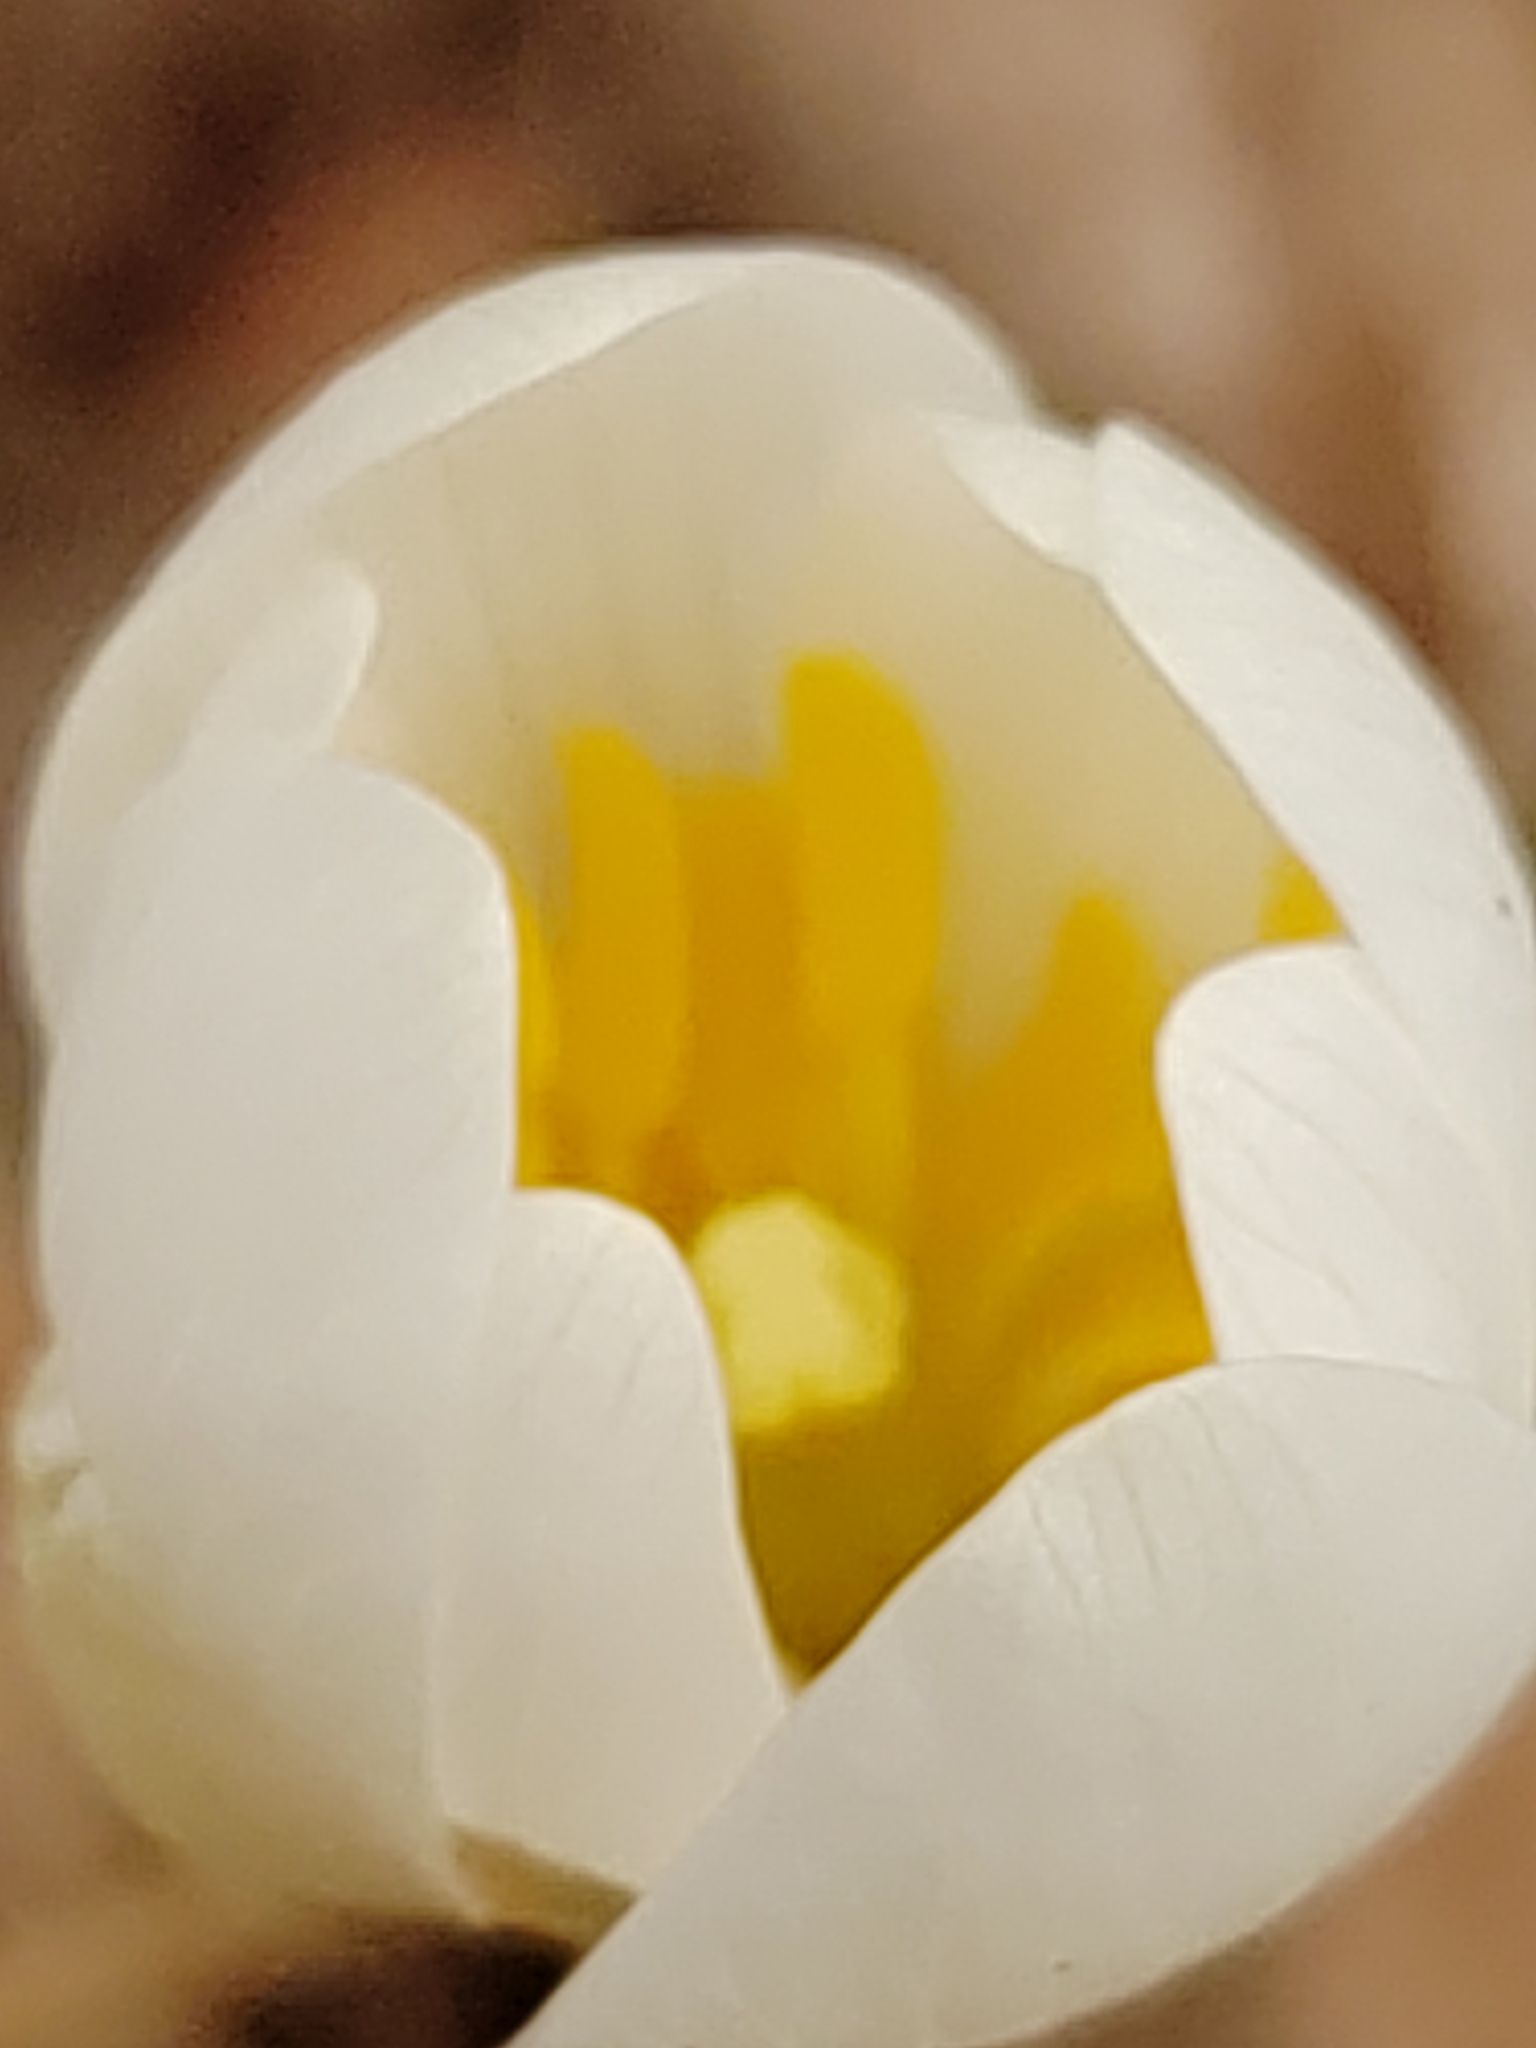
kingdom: Plantae
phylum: Tracheophyta
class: Magnoliopsida
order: Ranunculales
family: Papaveraceae
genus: Sanguinaria
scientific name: Sanguinaria canadensis
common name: Bloodroot
